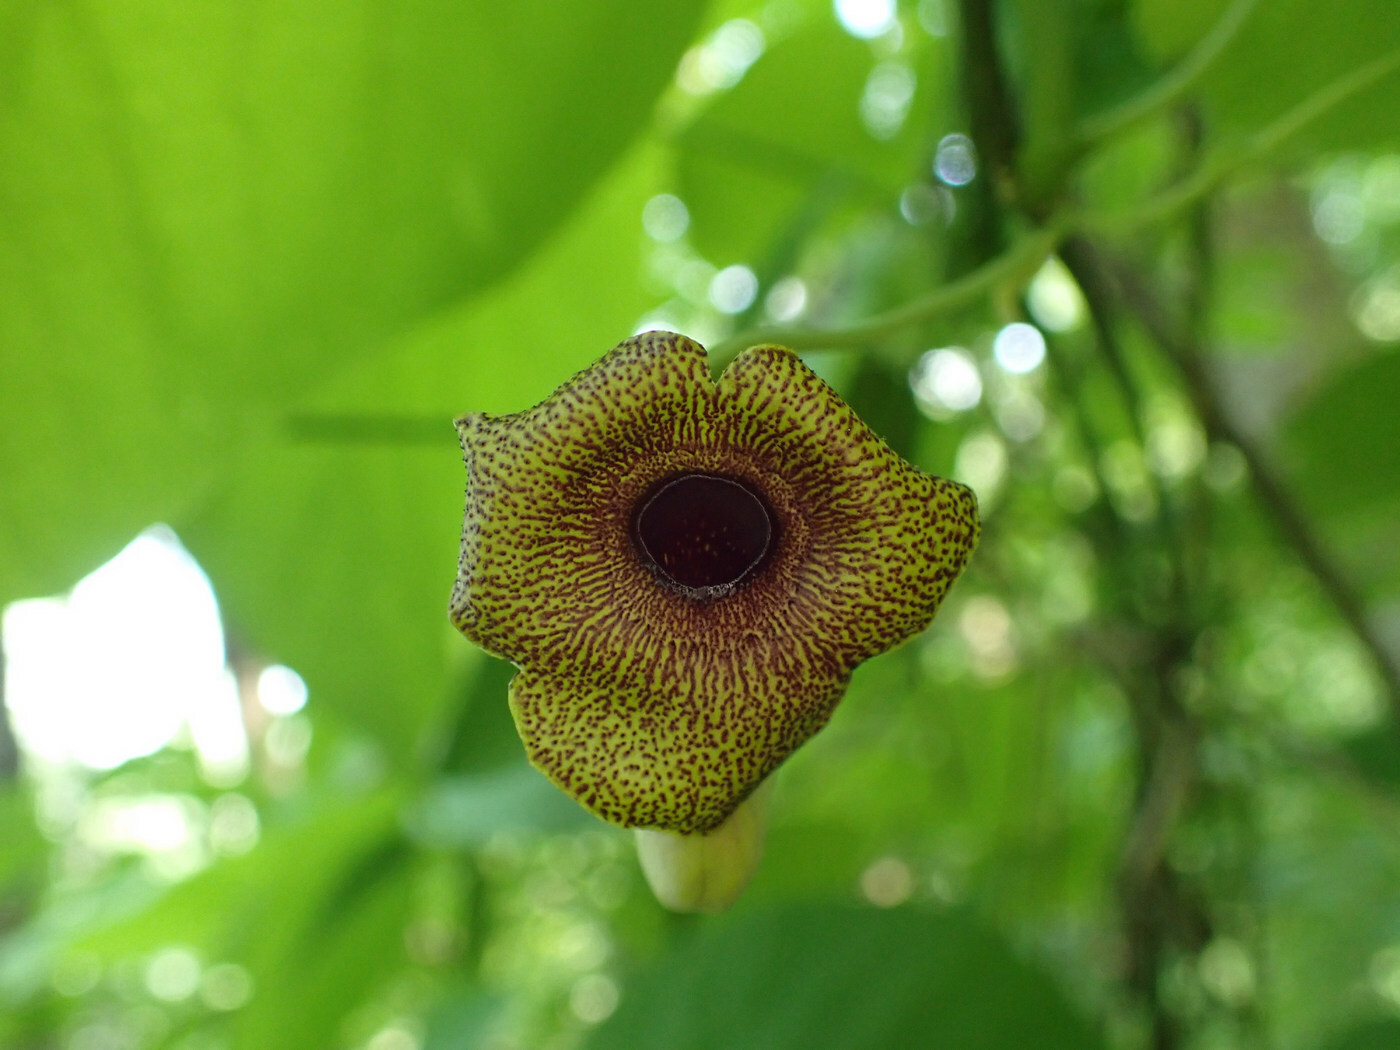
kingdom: Plantae
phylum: Tracheophyta
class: Magnoliopsida
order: Piperales
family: Aristolochiaceae
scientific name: Aristolochiaceae
